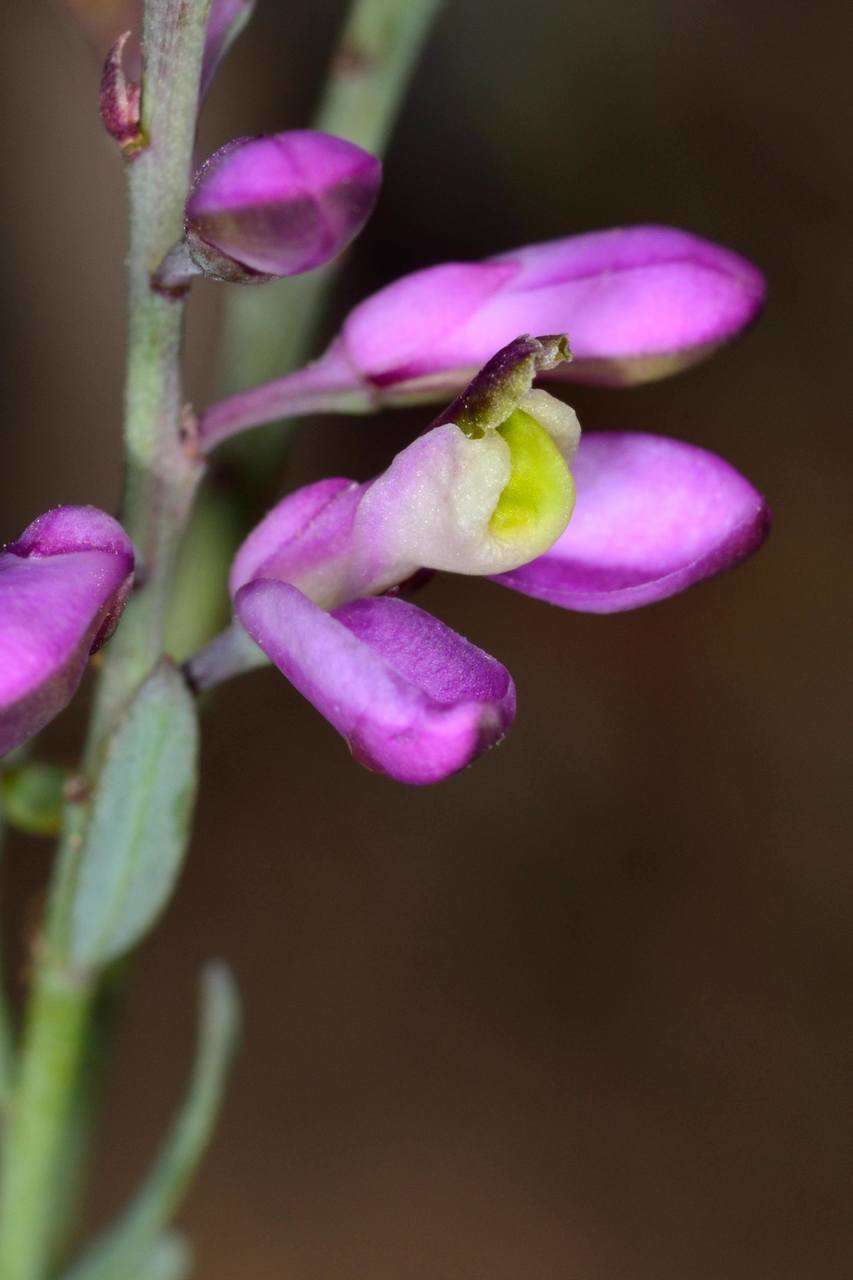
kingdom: Plantae
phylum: Tracheophyta
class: Magnoliopsida
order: Fabales
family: Polygalaceae
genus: Comesperma
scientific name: Comesperma polygaloides
